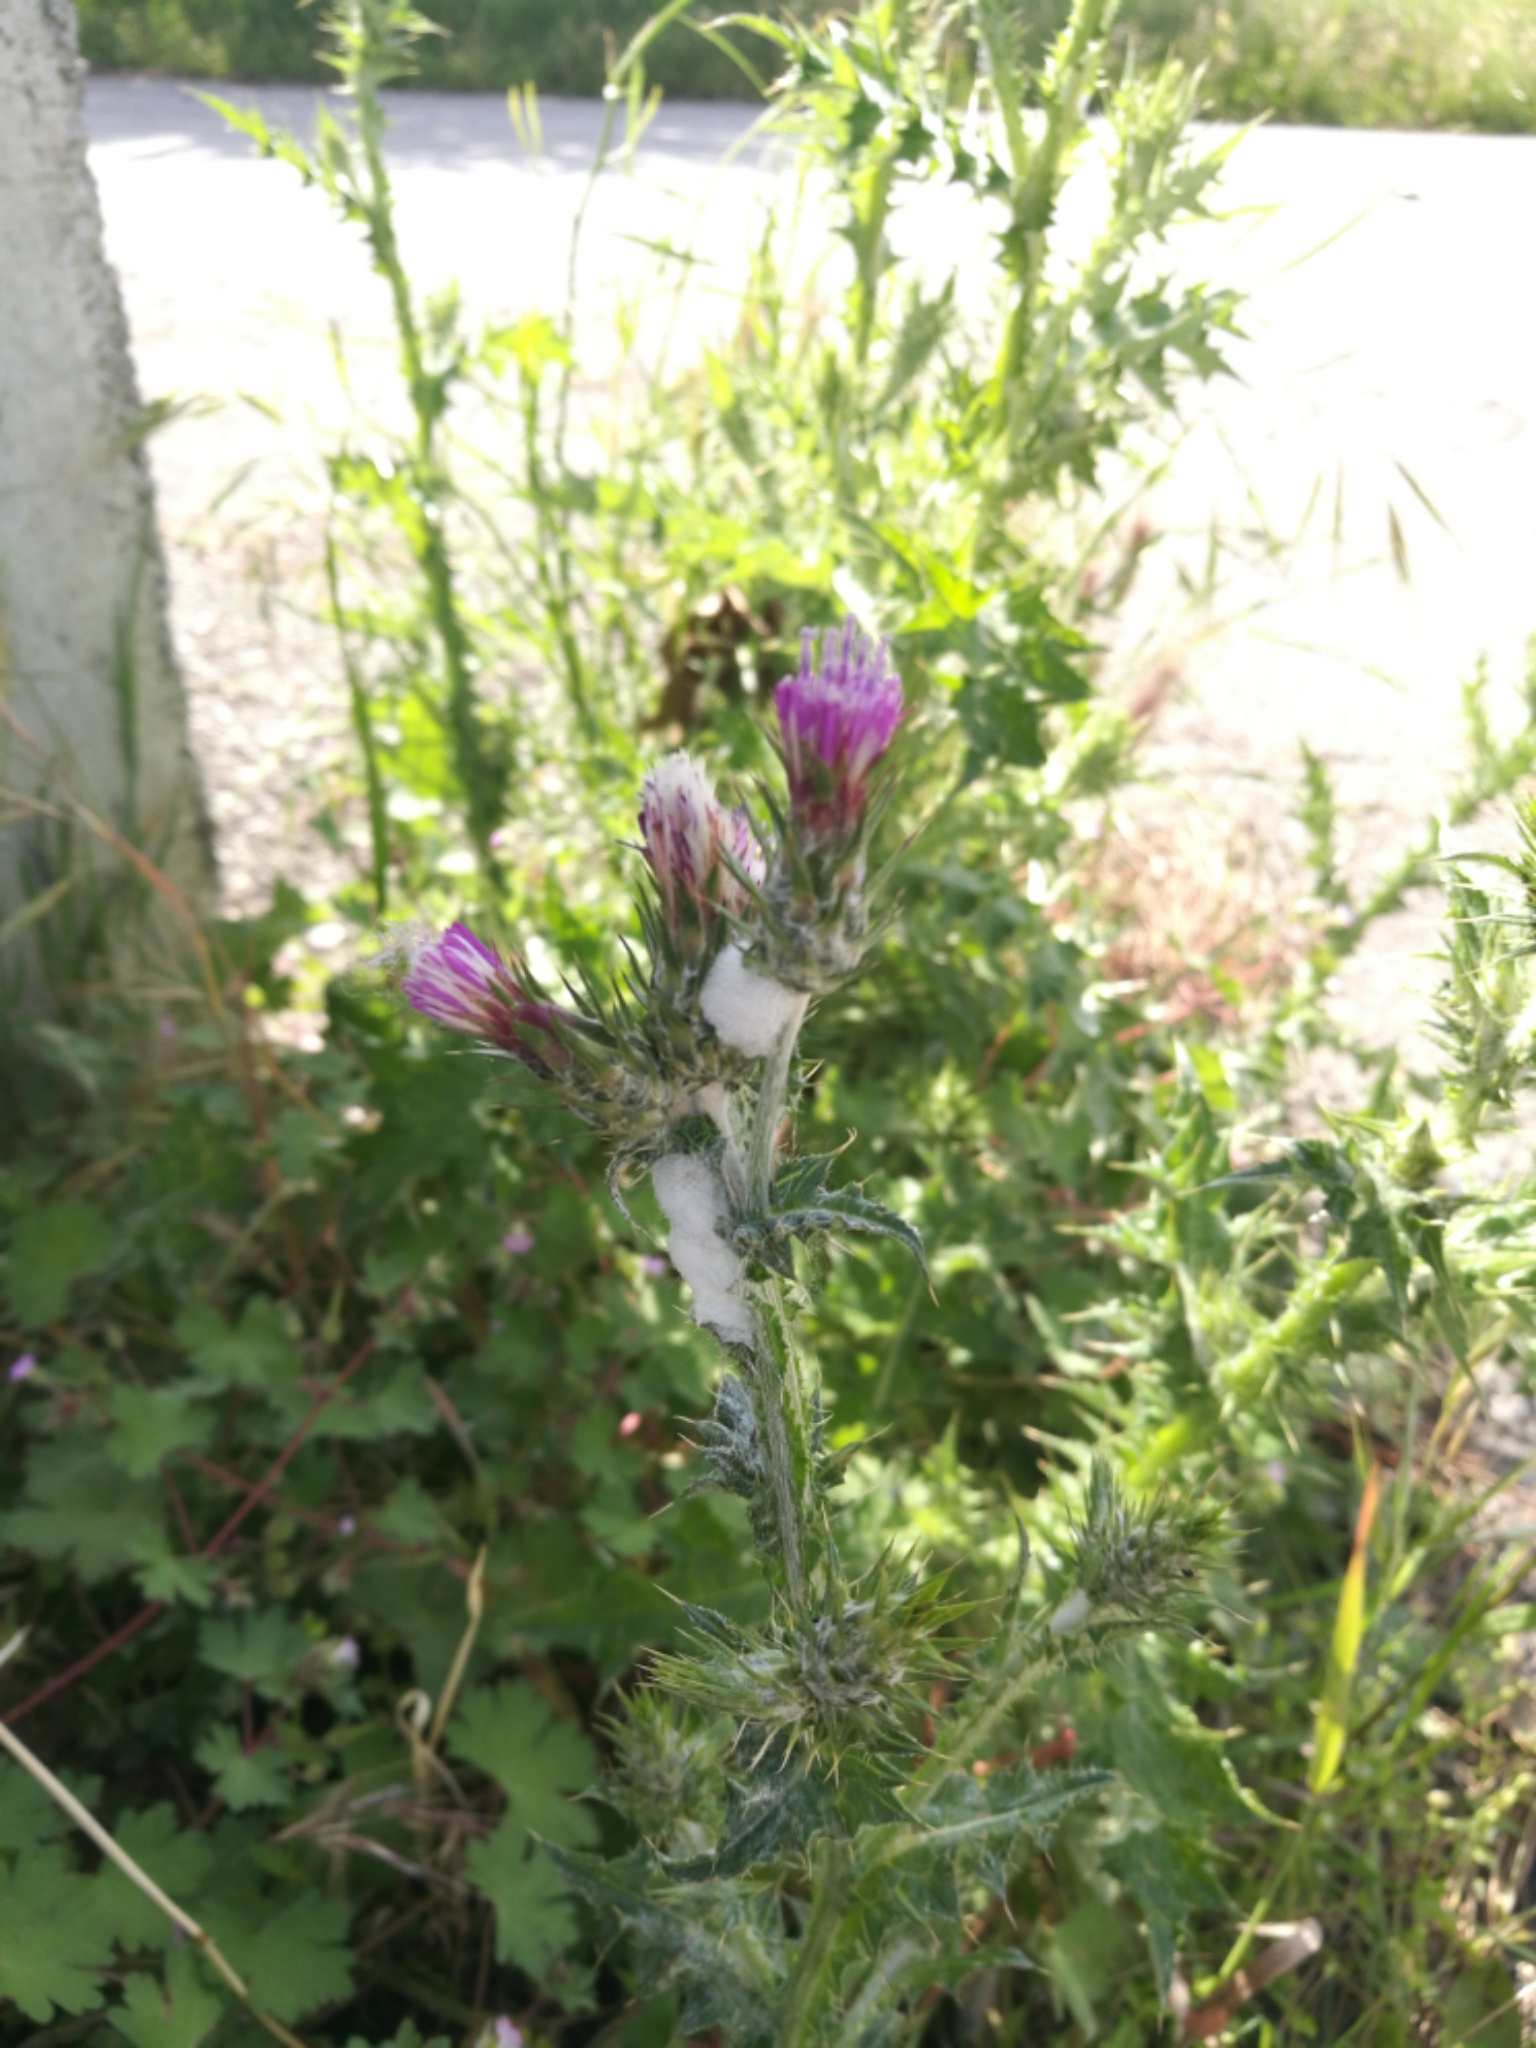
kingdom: Animalia
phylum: Arthropoda
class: Insecta
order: Hemiptera
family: Aphrophoridae
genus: Philaenus
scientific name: Philaenus spumarius
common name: Meadow spittlebug
